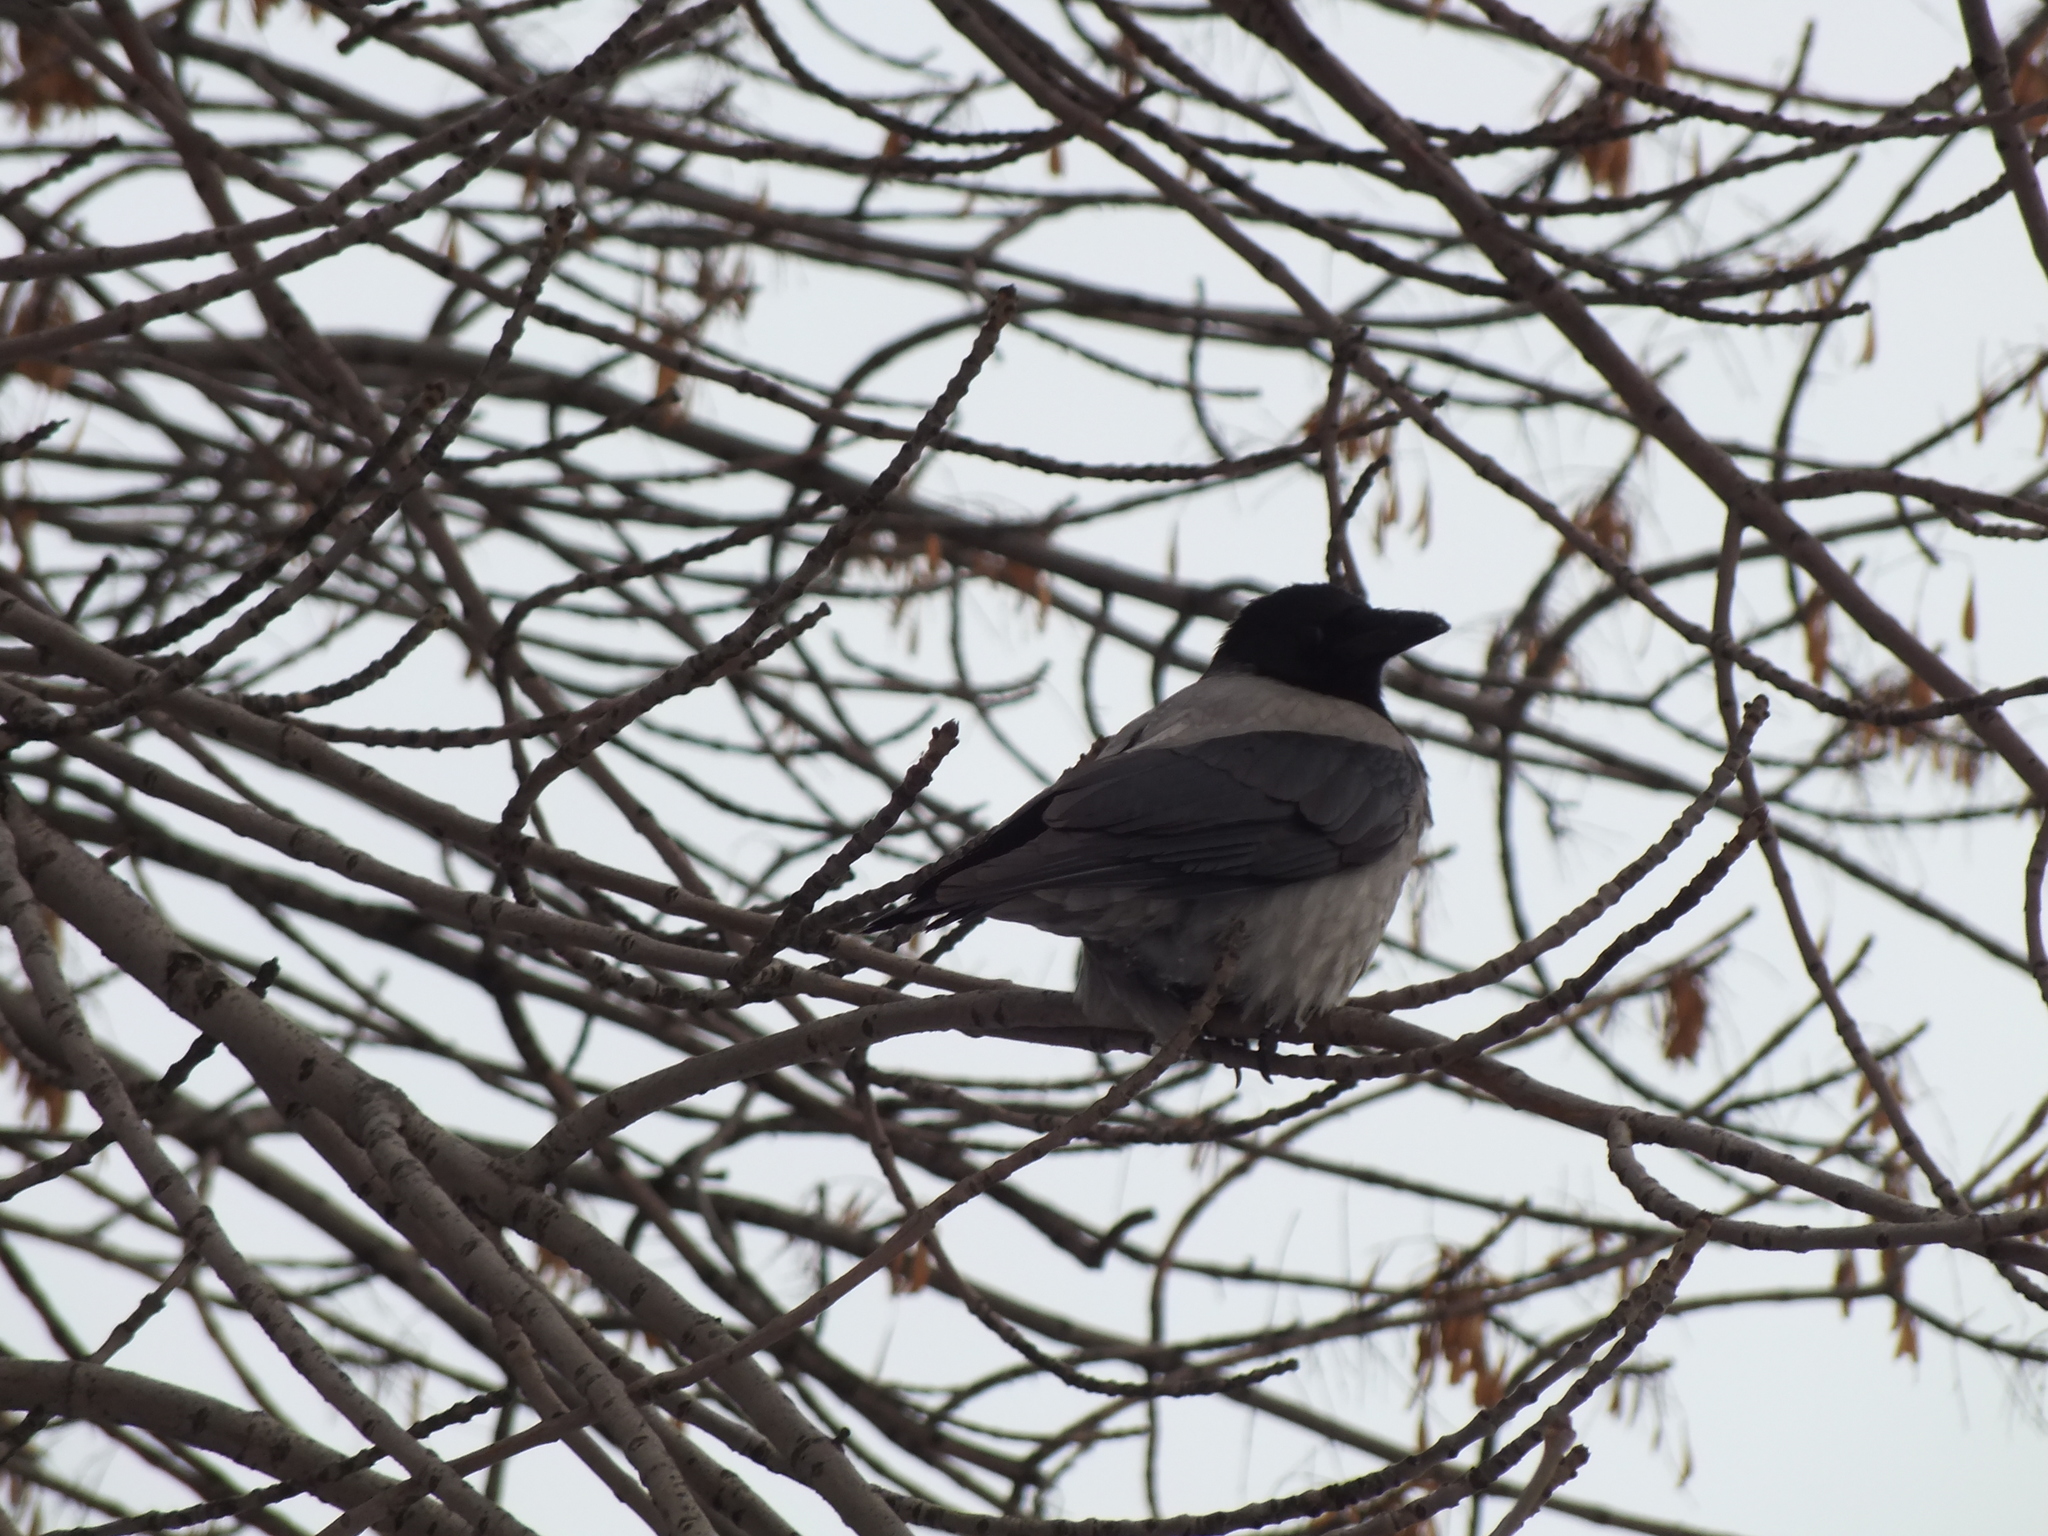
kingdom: Animalia
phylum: Chordata
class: Aves
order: Passeriformes
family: Corvidae
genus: Corvus
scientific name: Corvus cornix
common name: Hooded crow
